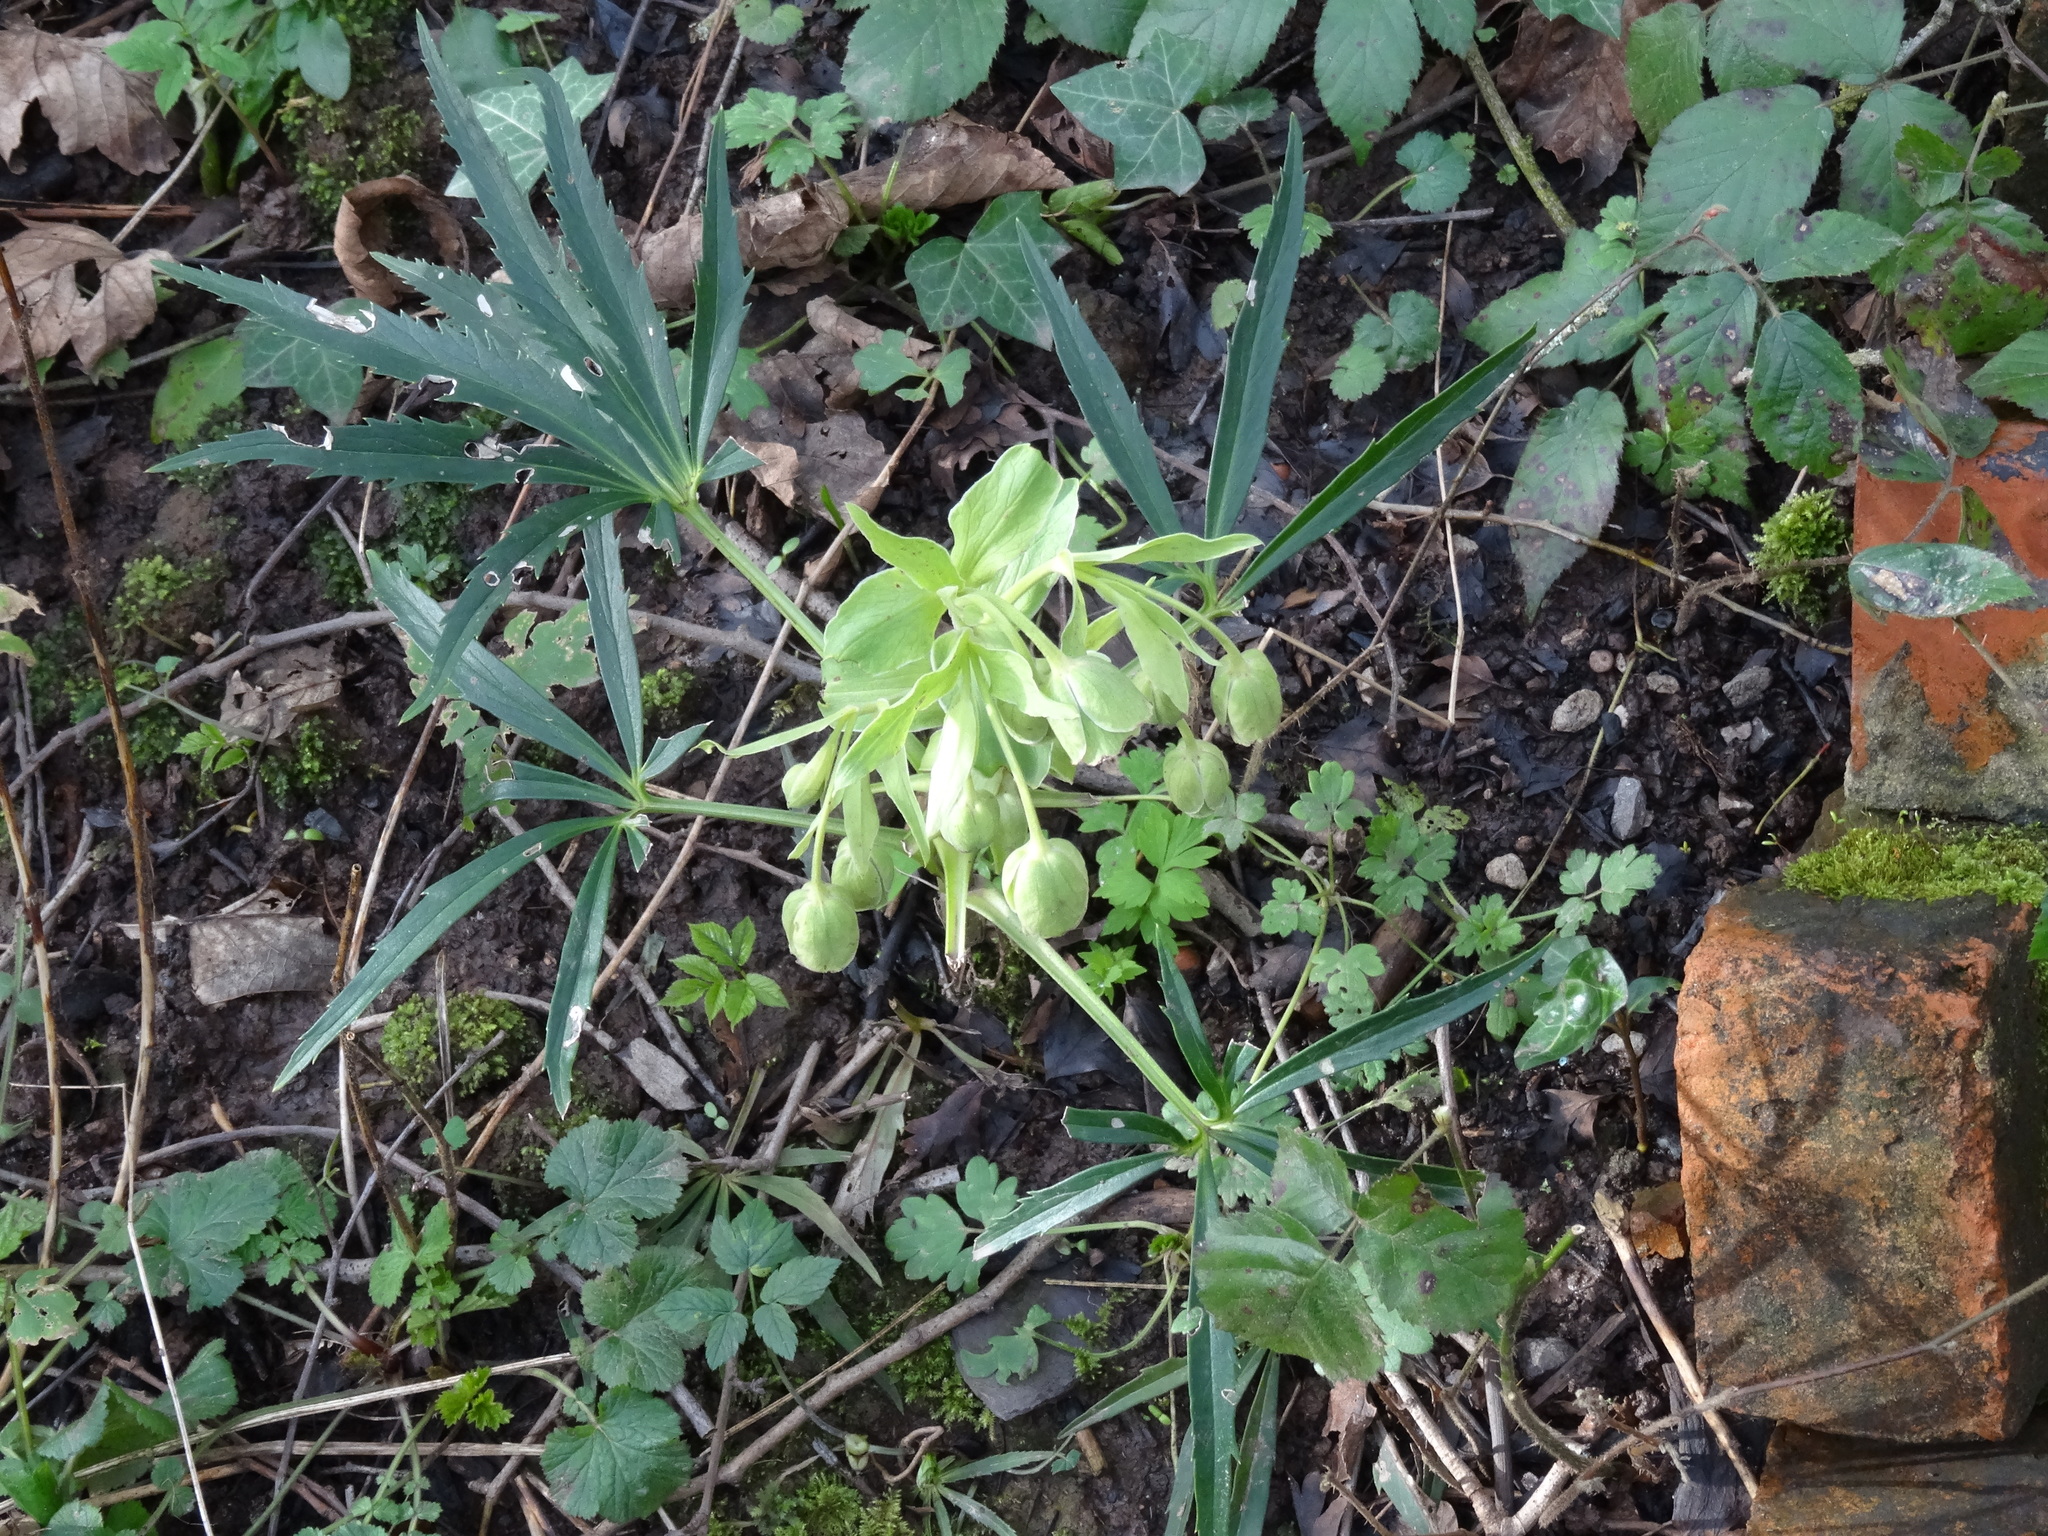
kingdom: Plantae
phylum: Tracheophyta
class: Magnoliopsida
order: Ranunculales
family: Ranunculaceae
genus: Helleborus
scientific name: Helleborus foetidus
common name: Stinking hellebore
